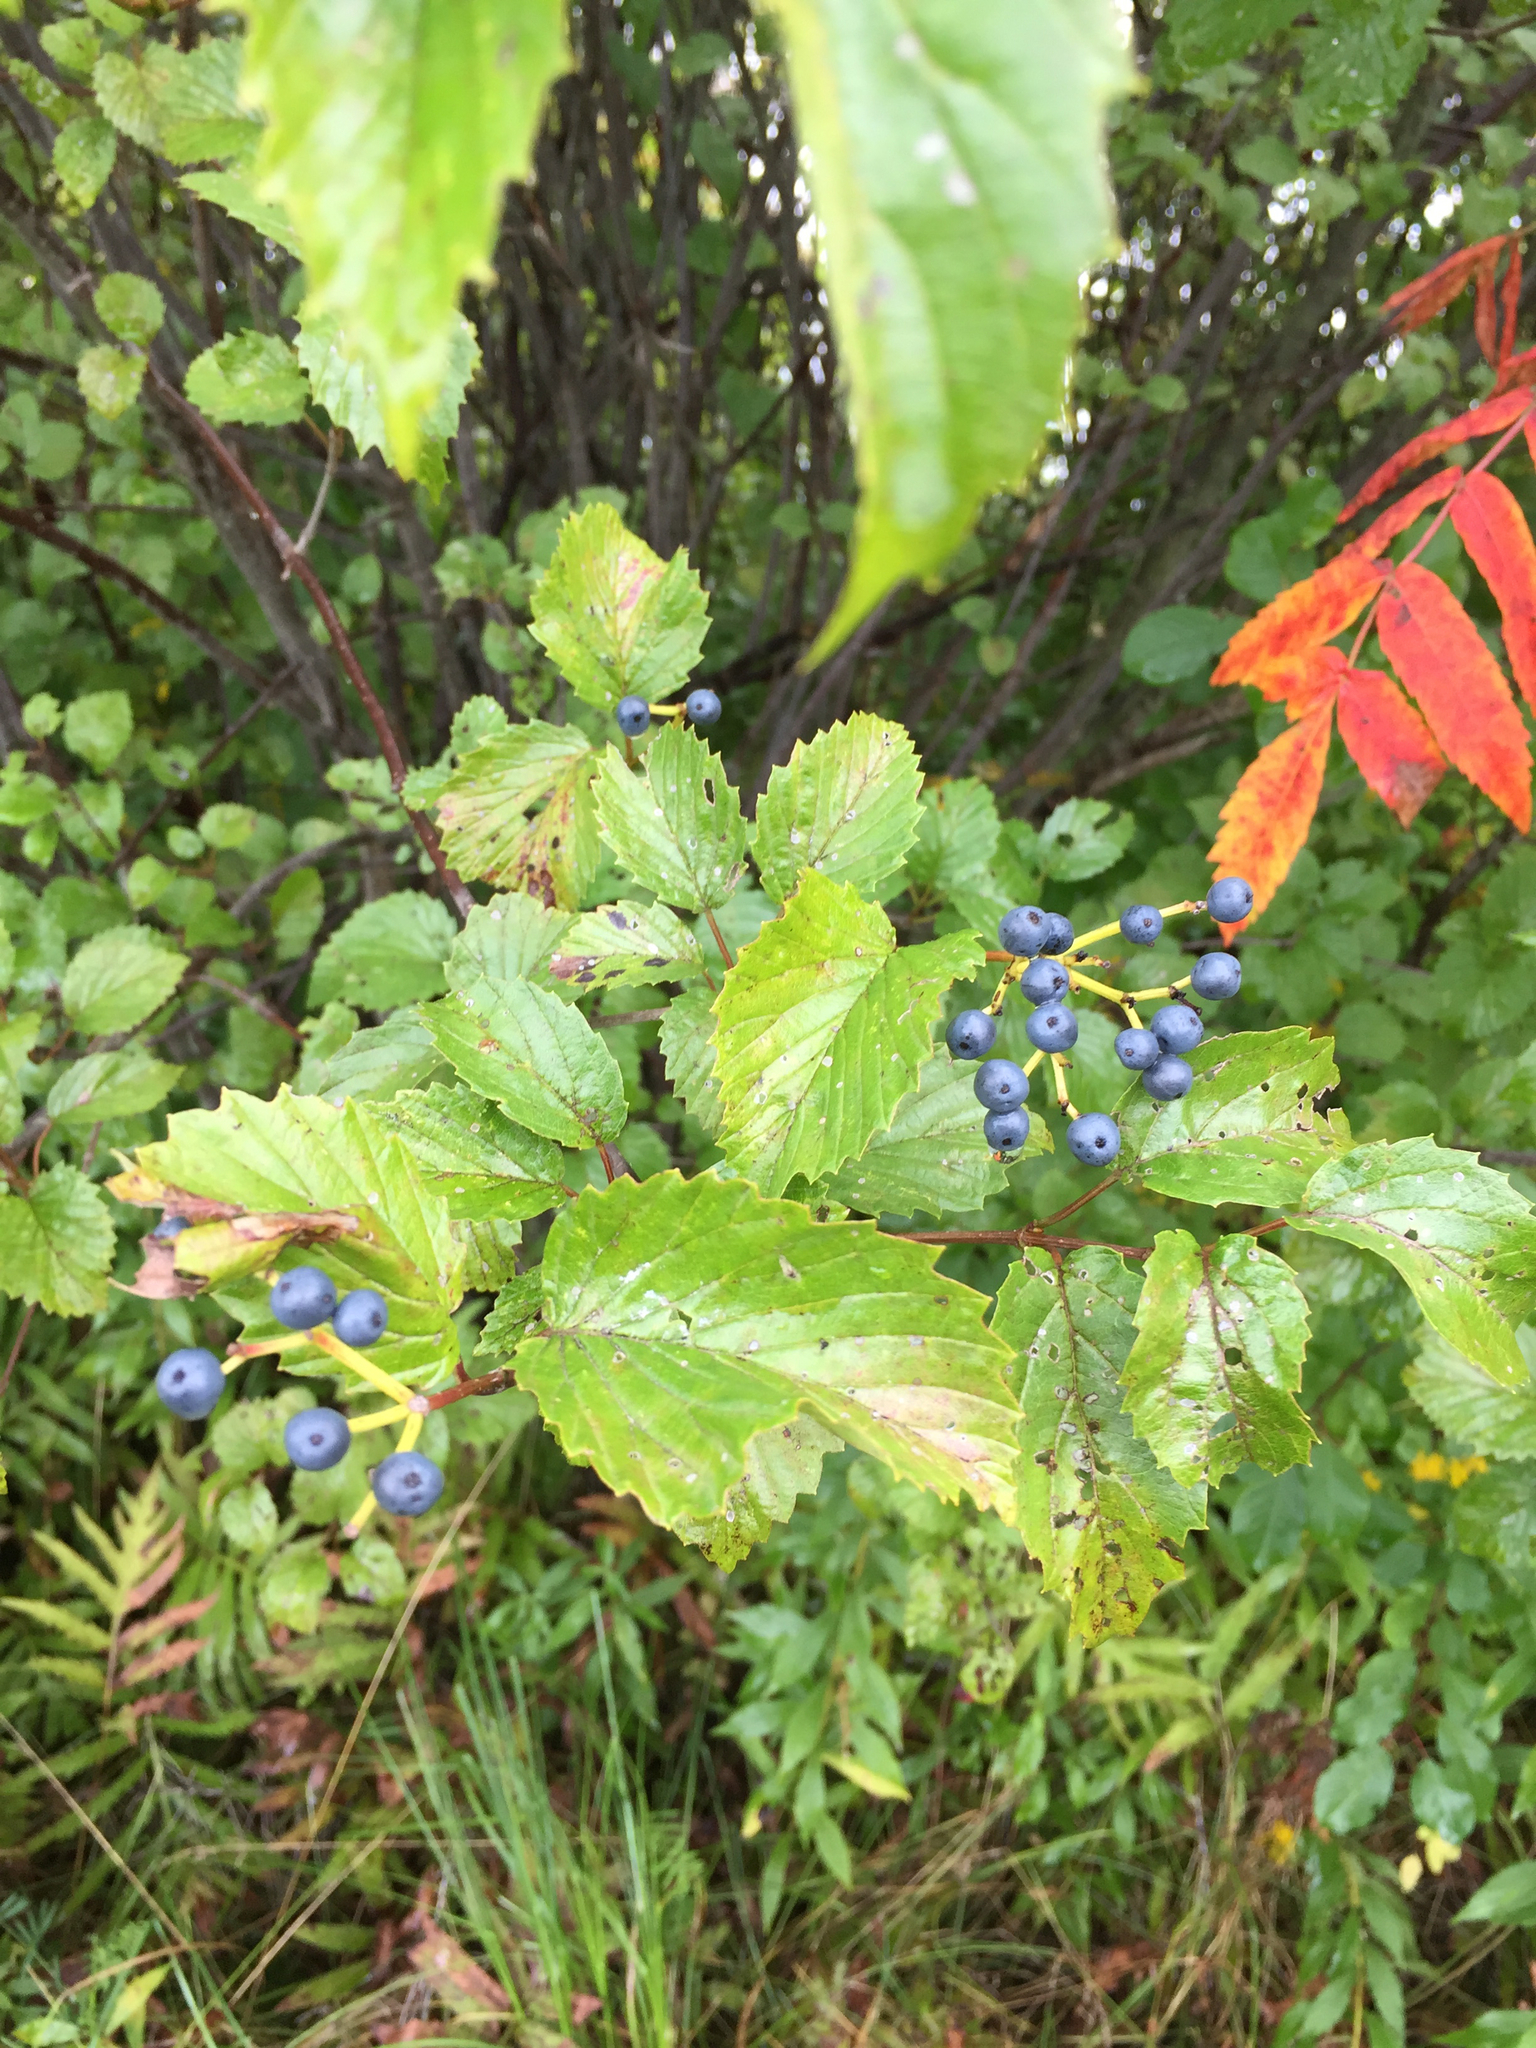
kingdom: Plantae
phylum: Tracheophyta
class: Magnoliopsida
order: Dipsacales
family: Viburnaceae
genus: Viburnum
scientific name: Viburnum dentatum
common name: Arrow-wood
